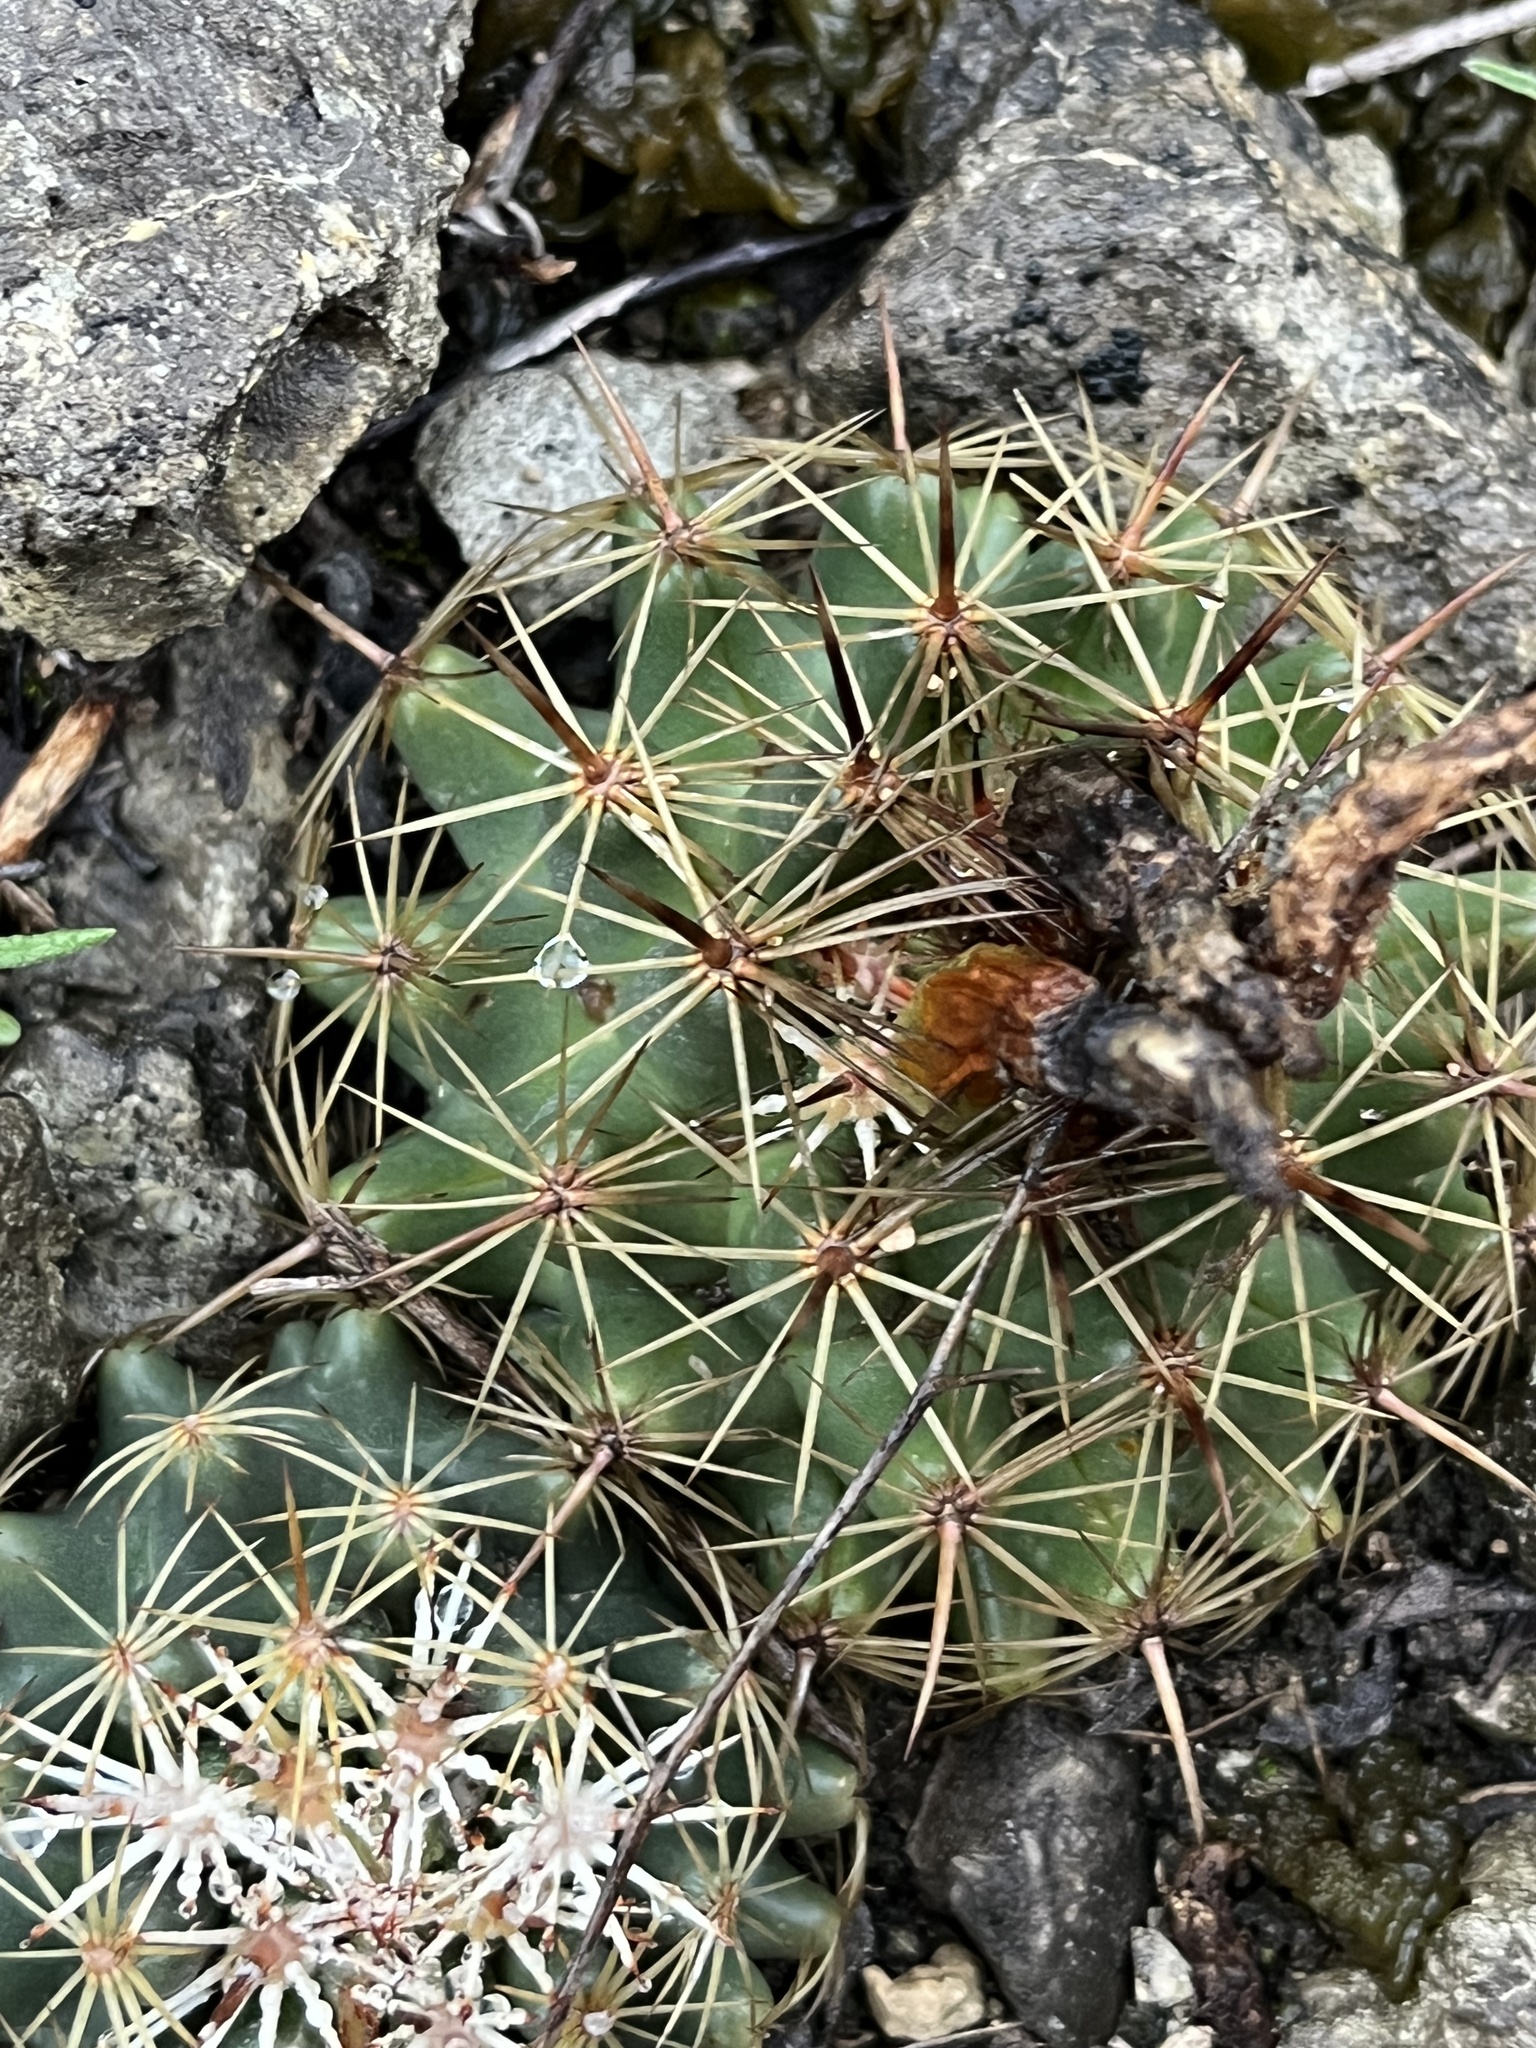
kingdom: Plantae
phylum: Tracheophyta
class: Magnoliopsida
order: Caryophyllales
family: Cactaceae
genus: Coryphantha
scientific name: Coryphantha sulcata
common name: Finger cactus
